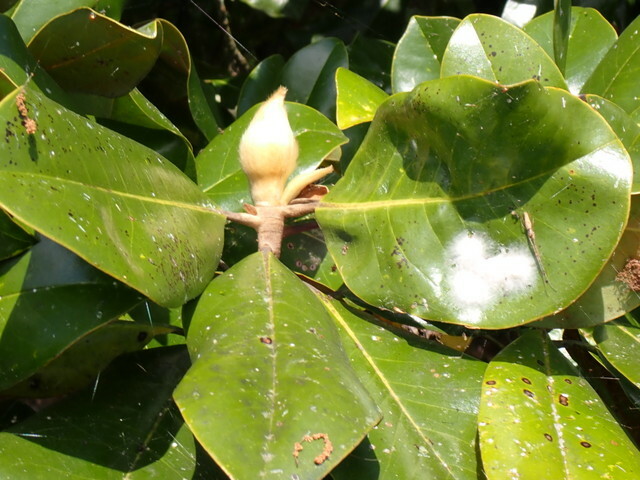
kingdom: Plantae
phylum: Tracheophyta
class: Magnoliopsida
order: Magnoliales
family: Magnoliaceae
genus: Magnolia
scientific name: Magnolia grandiflora
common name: Southern magnolia
